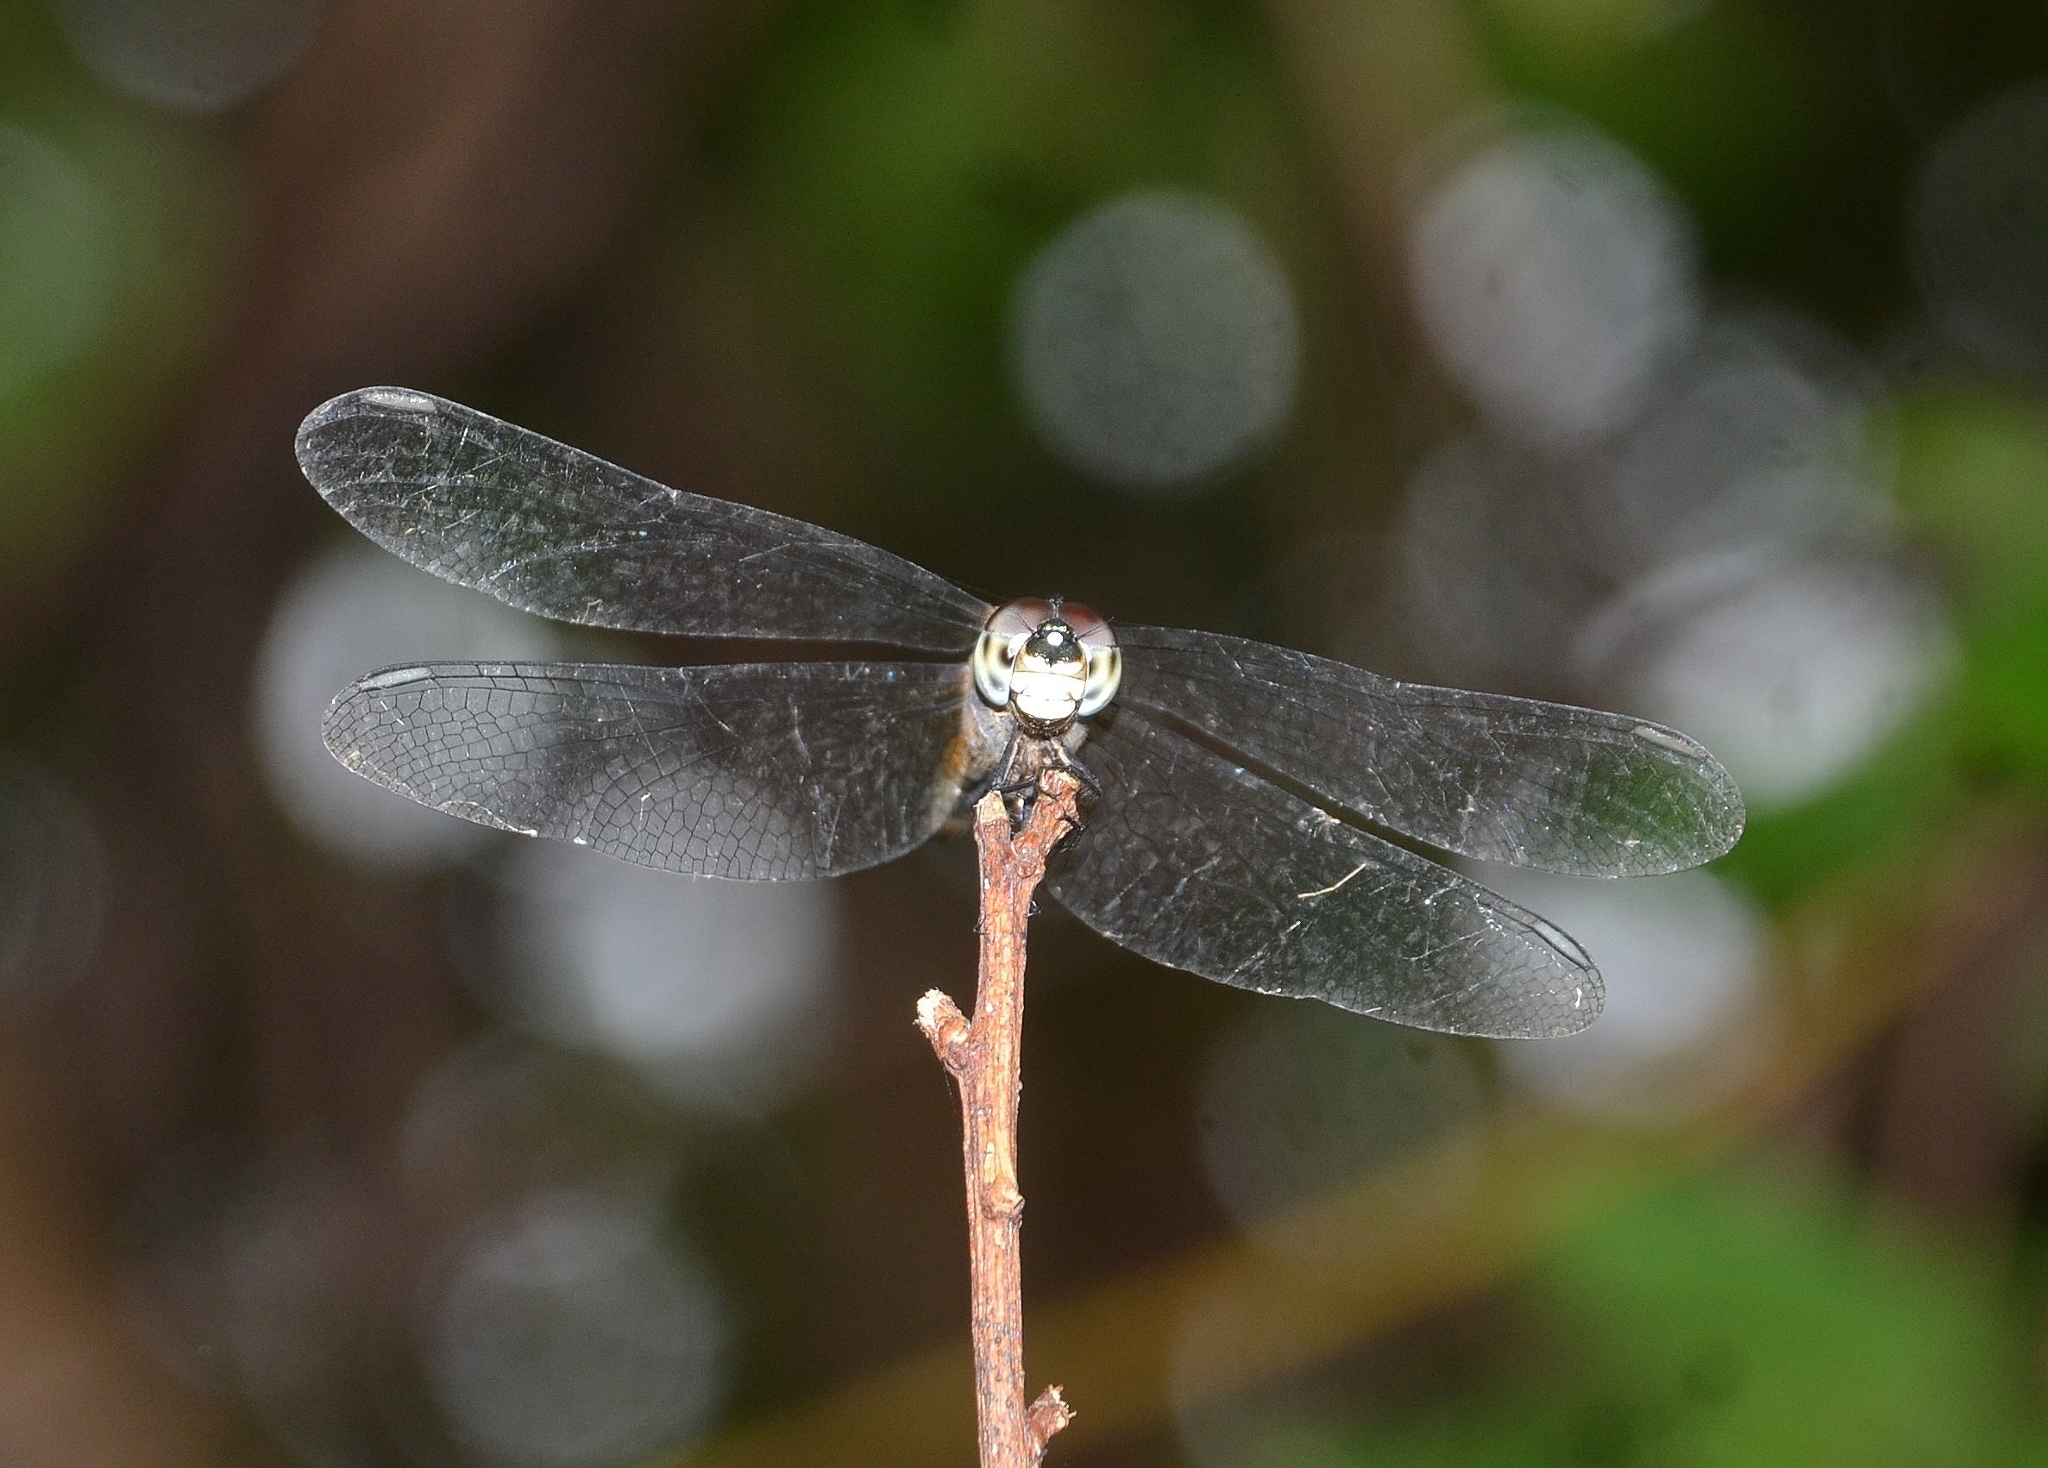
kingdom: Animalia
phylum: Arthropoda
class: Insecta
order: Odonata
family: Libellulidae
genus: Brachydiplax
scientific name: Brachydiplax chalybea
